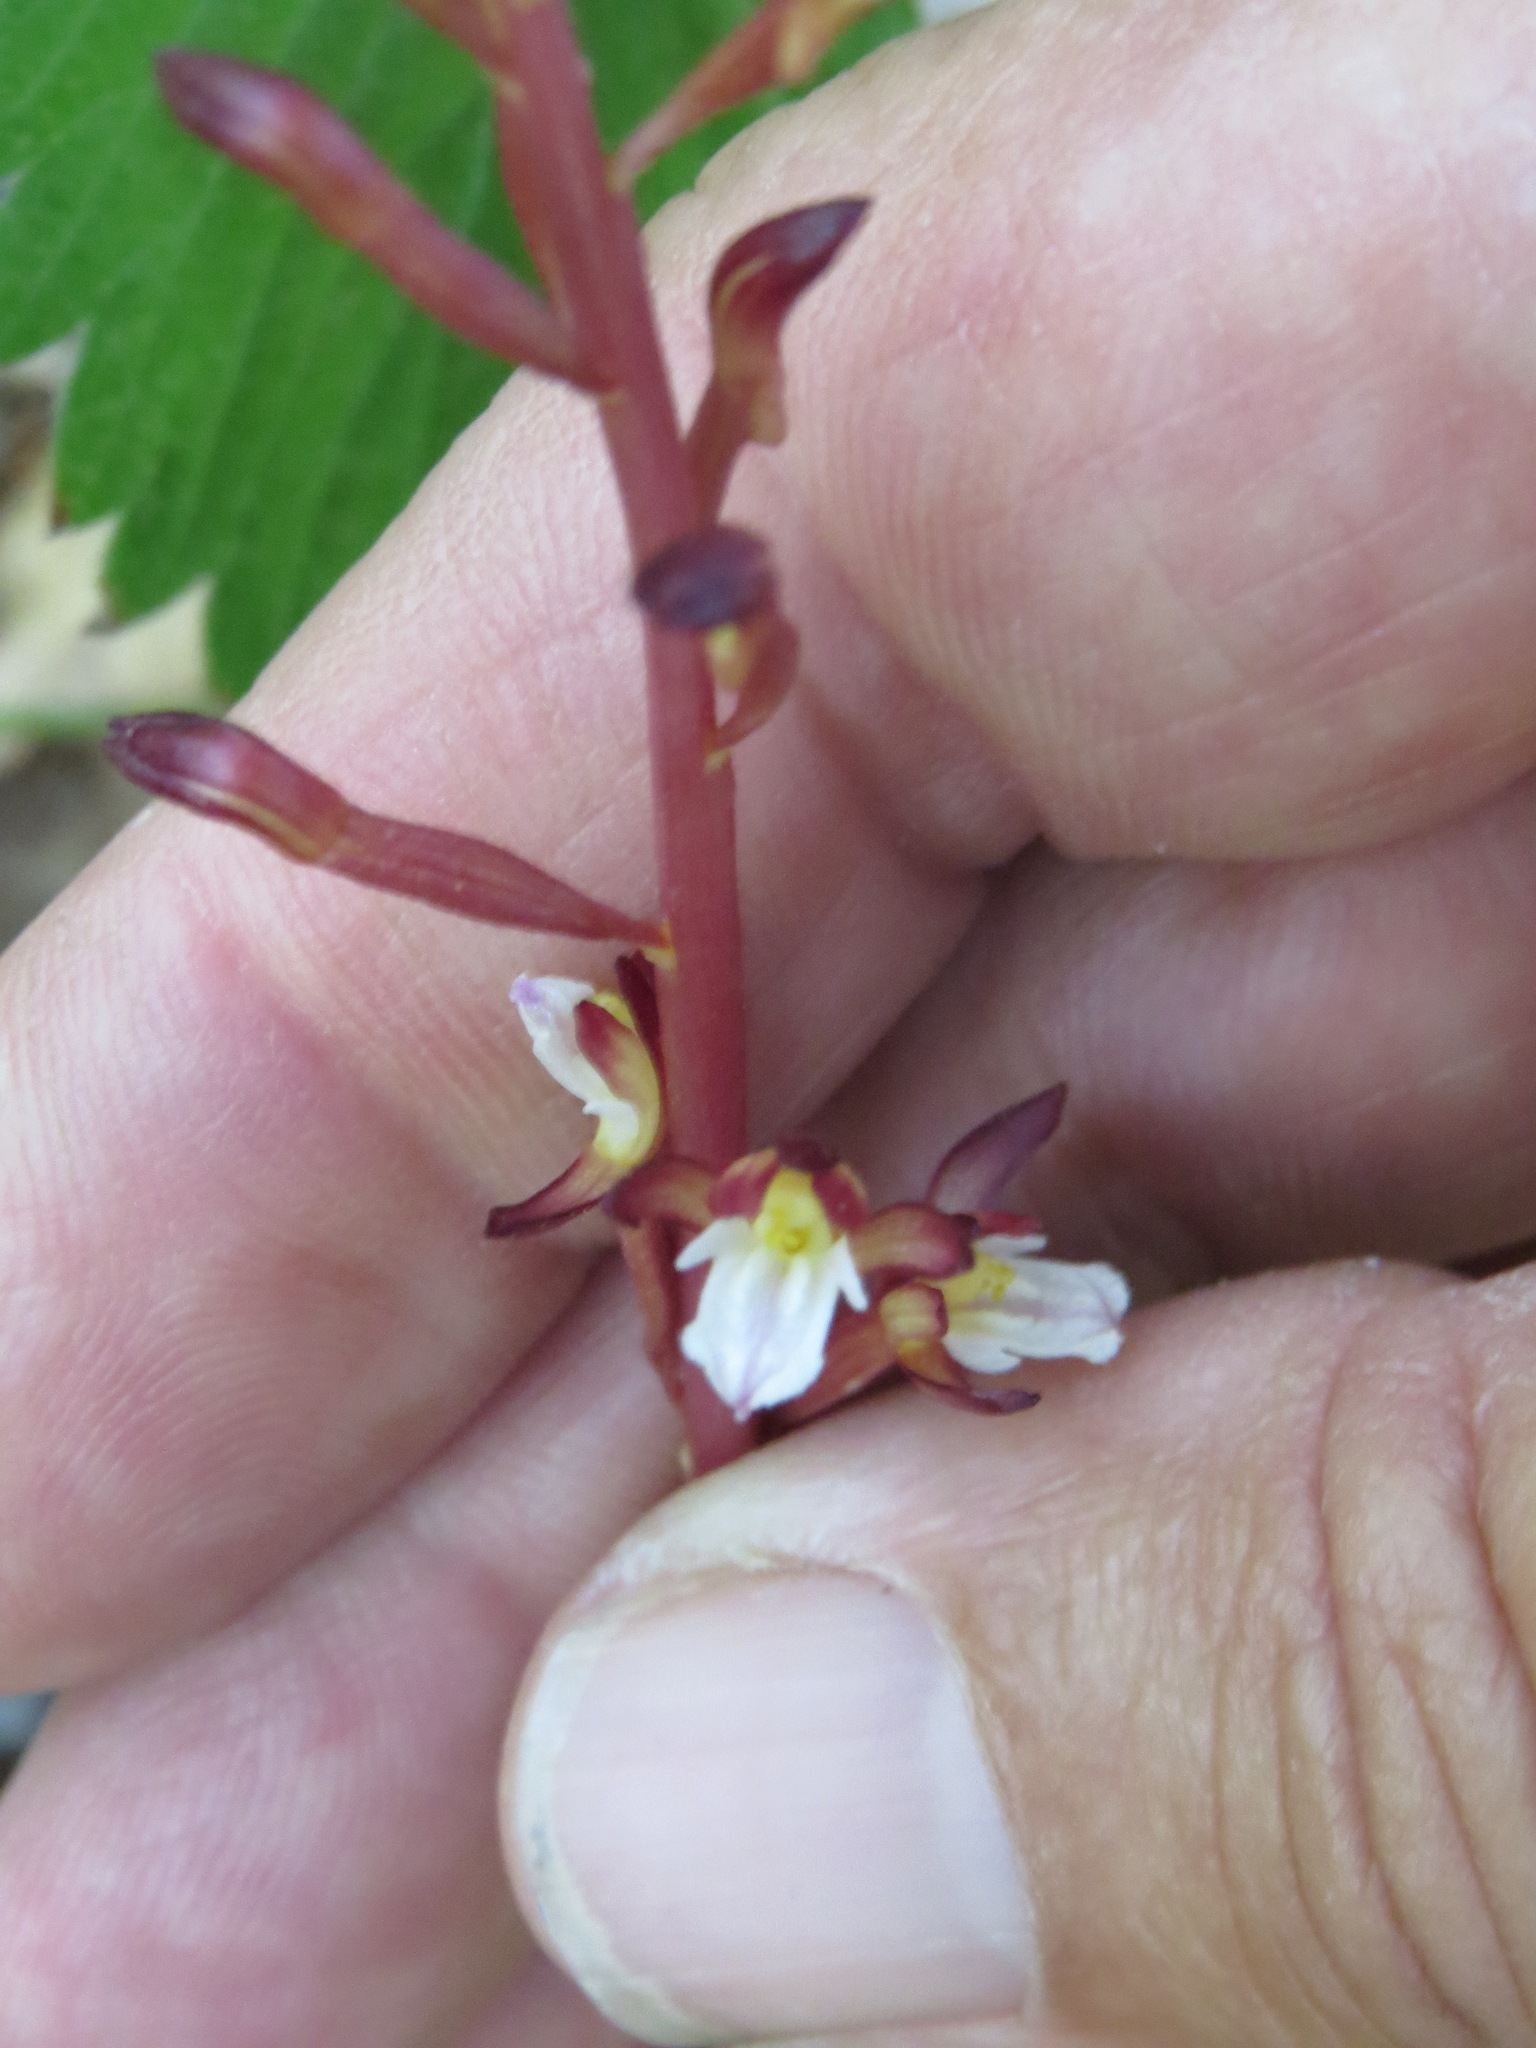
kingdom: Plantae
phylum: Tracheophyta
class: Liliopsida
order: Asparagales
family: Orchidaceae
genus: Corallorhiza
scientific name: Corallorhiza maculata
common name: Spotted coralroot
